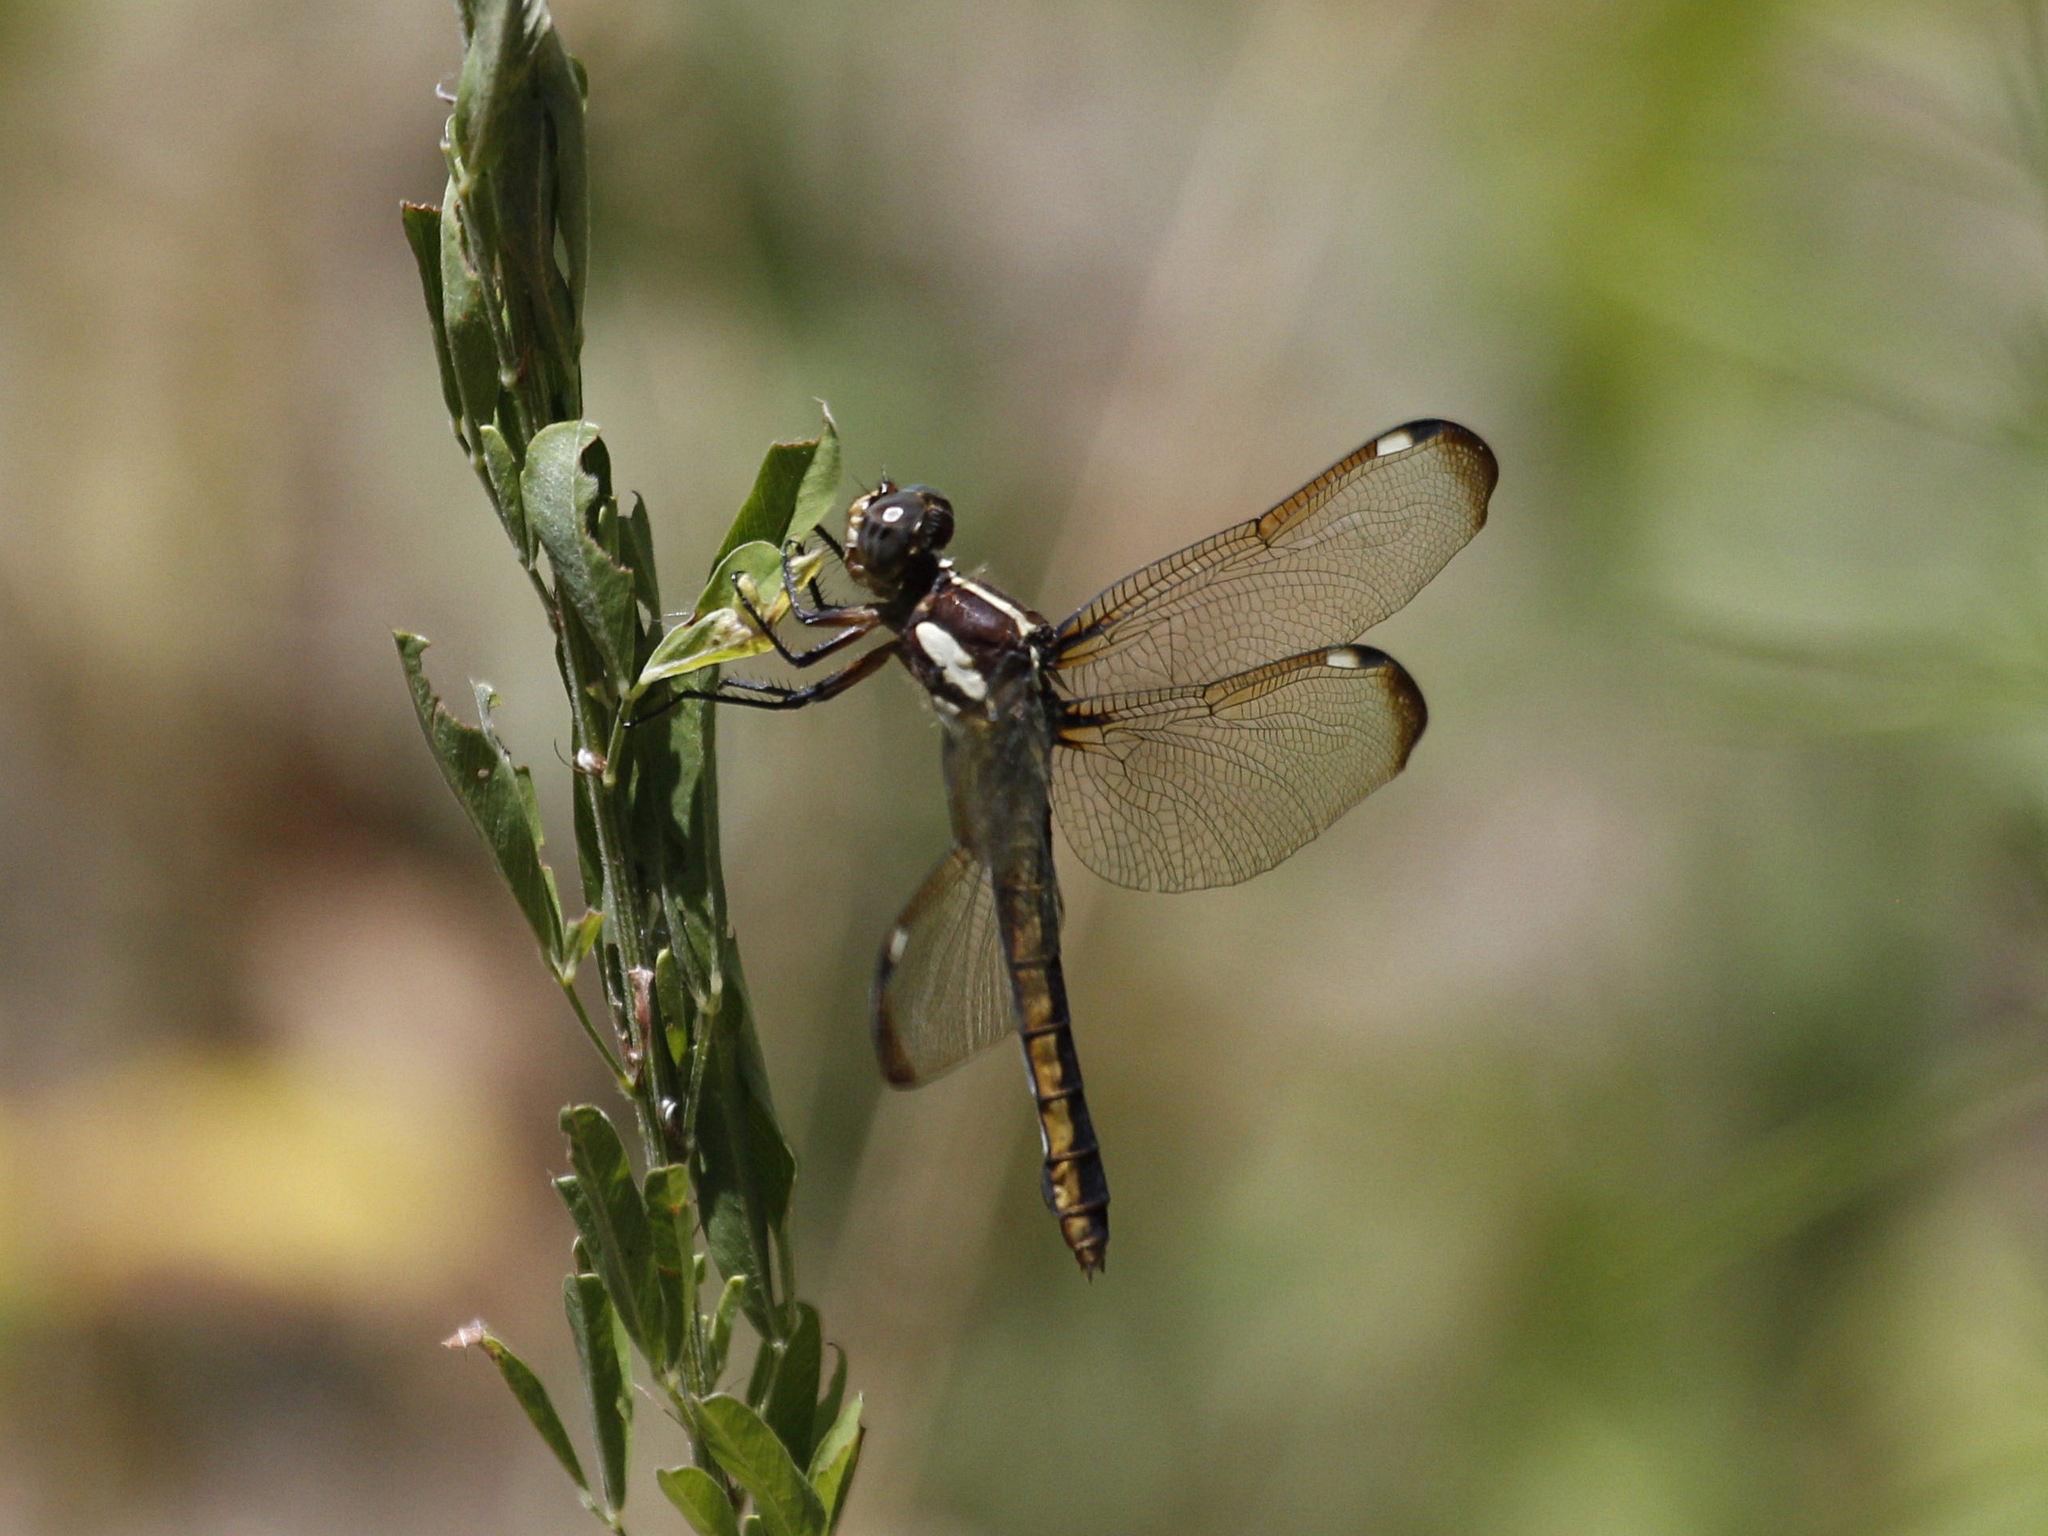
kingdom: Animalia
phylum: Arthropoda
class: Insecta
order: Odonata
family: Libellulidae
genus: Libellula
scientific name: Libellula cyanea
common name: Spangled skimmer
